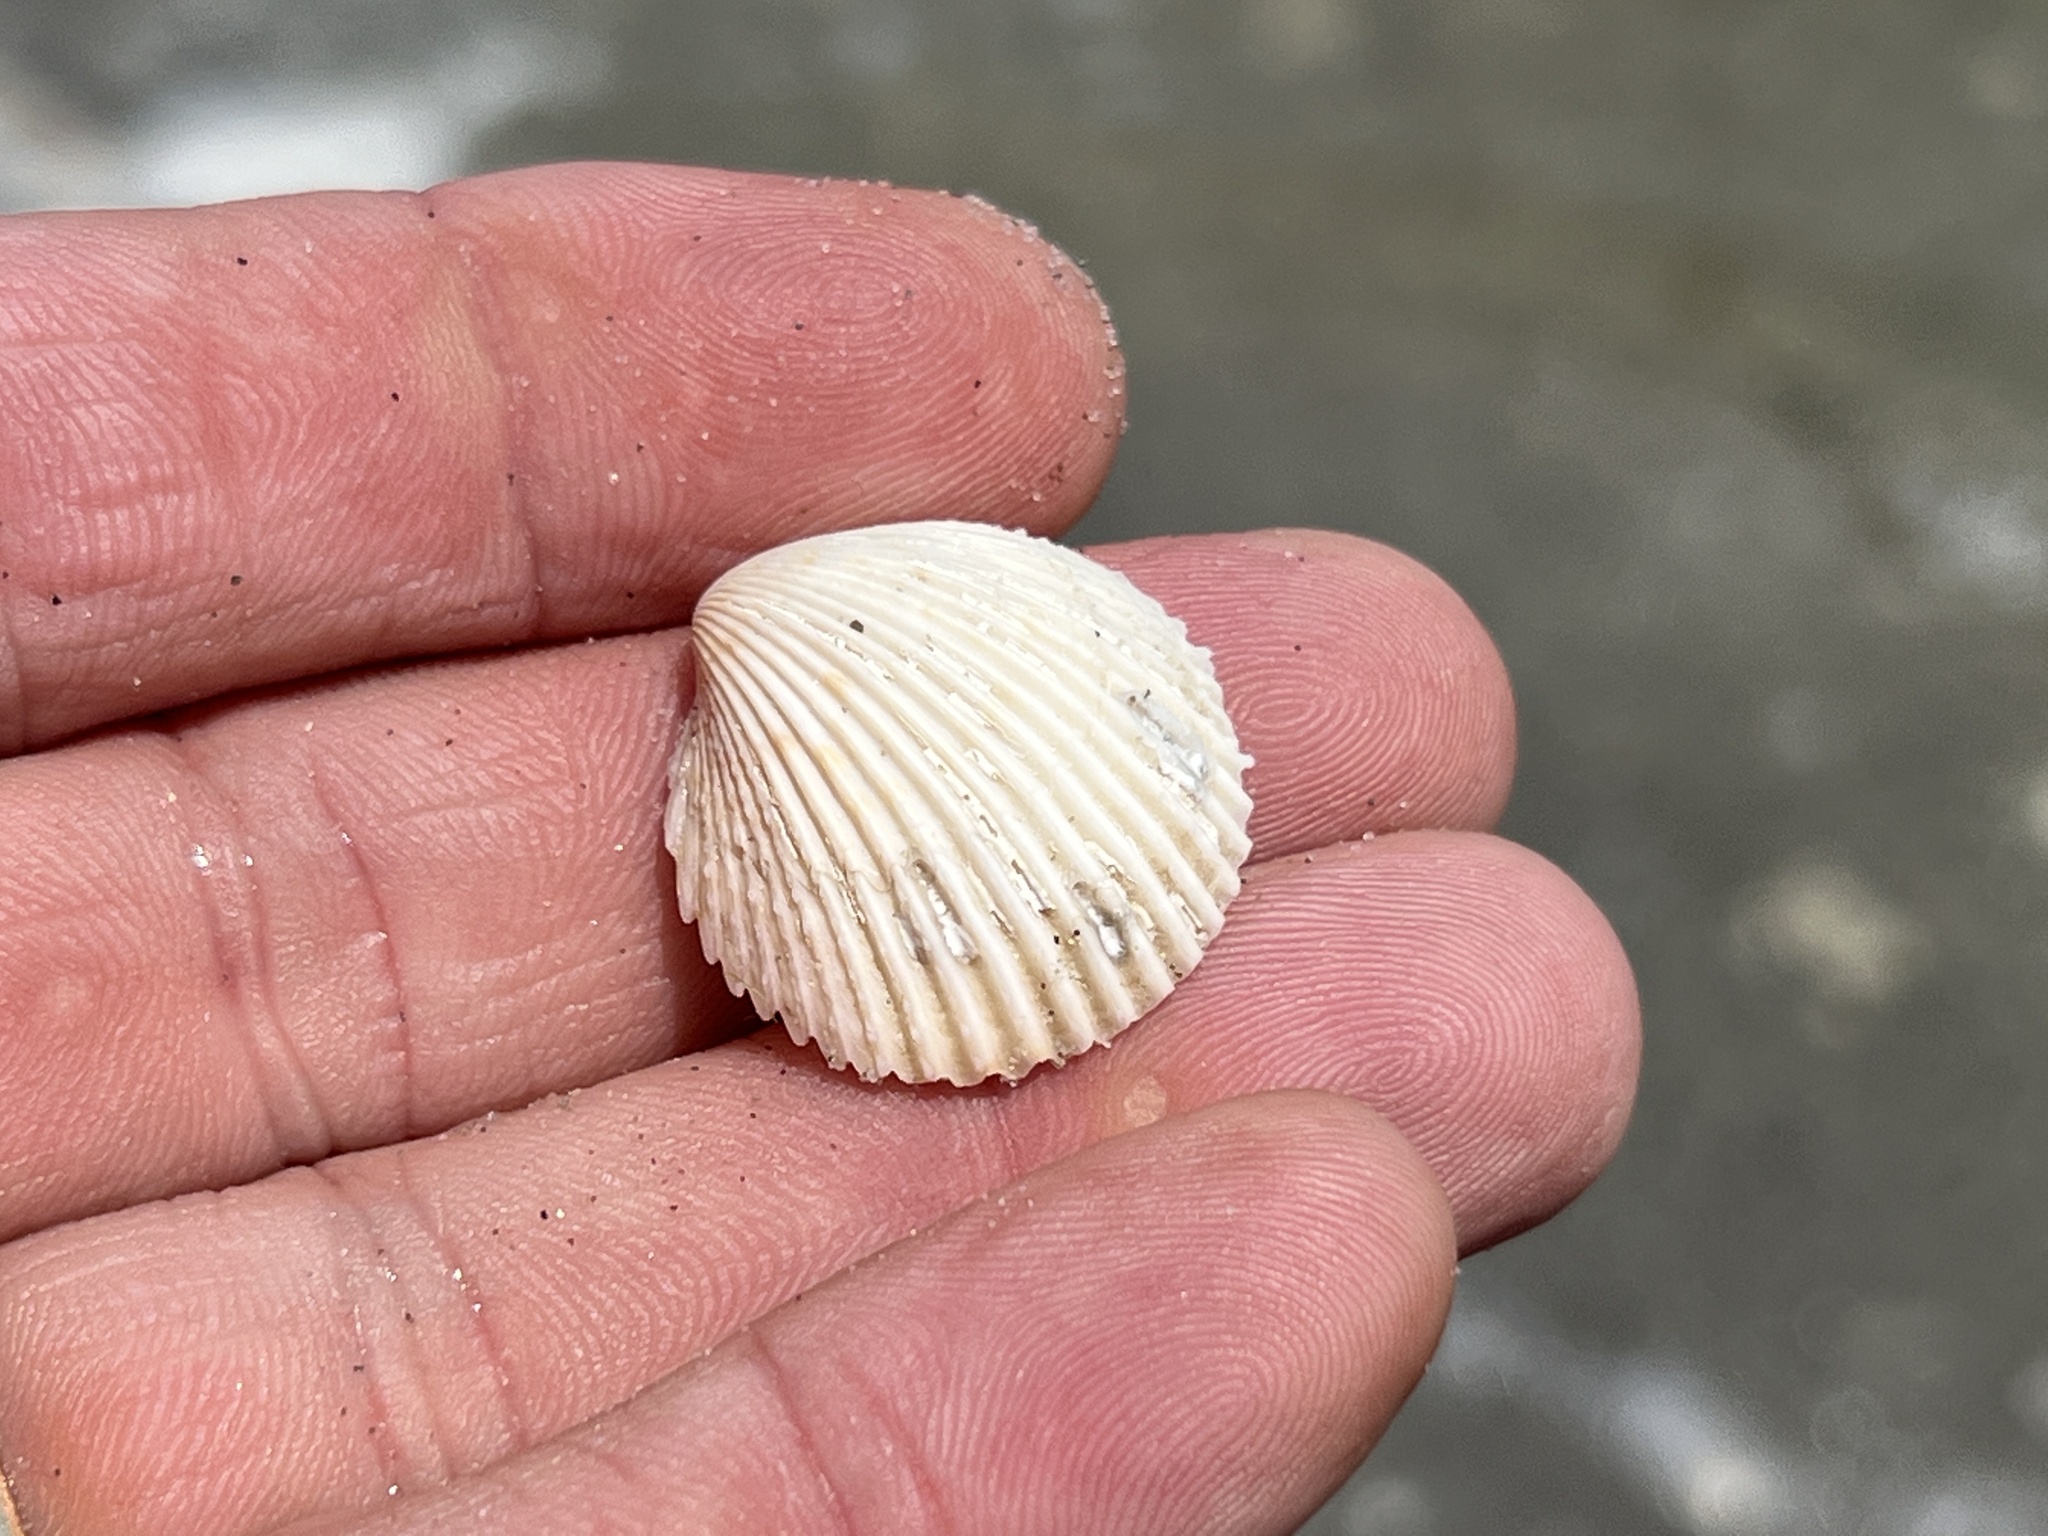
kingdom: Animalia
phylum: Mollusca
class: Bivalvia
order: Cardiida
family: Cardiidae
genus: Dallocardia
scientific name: Dallocardia muricata
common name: Yellow pricklycockle
